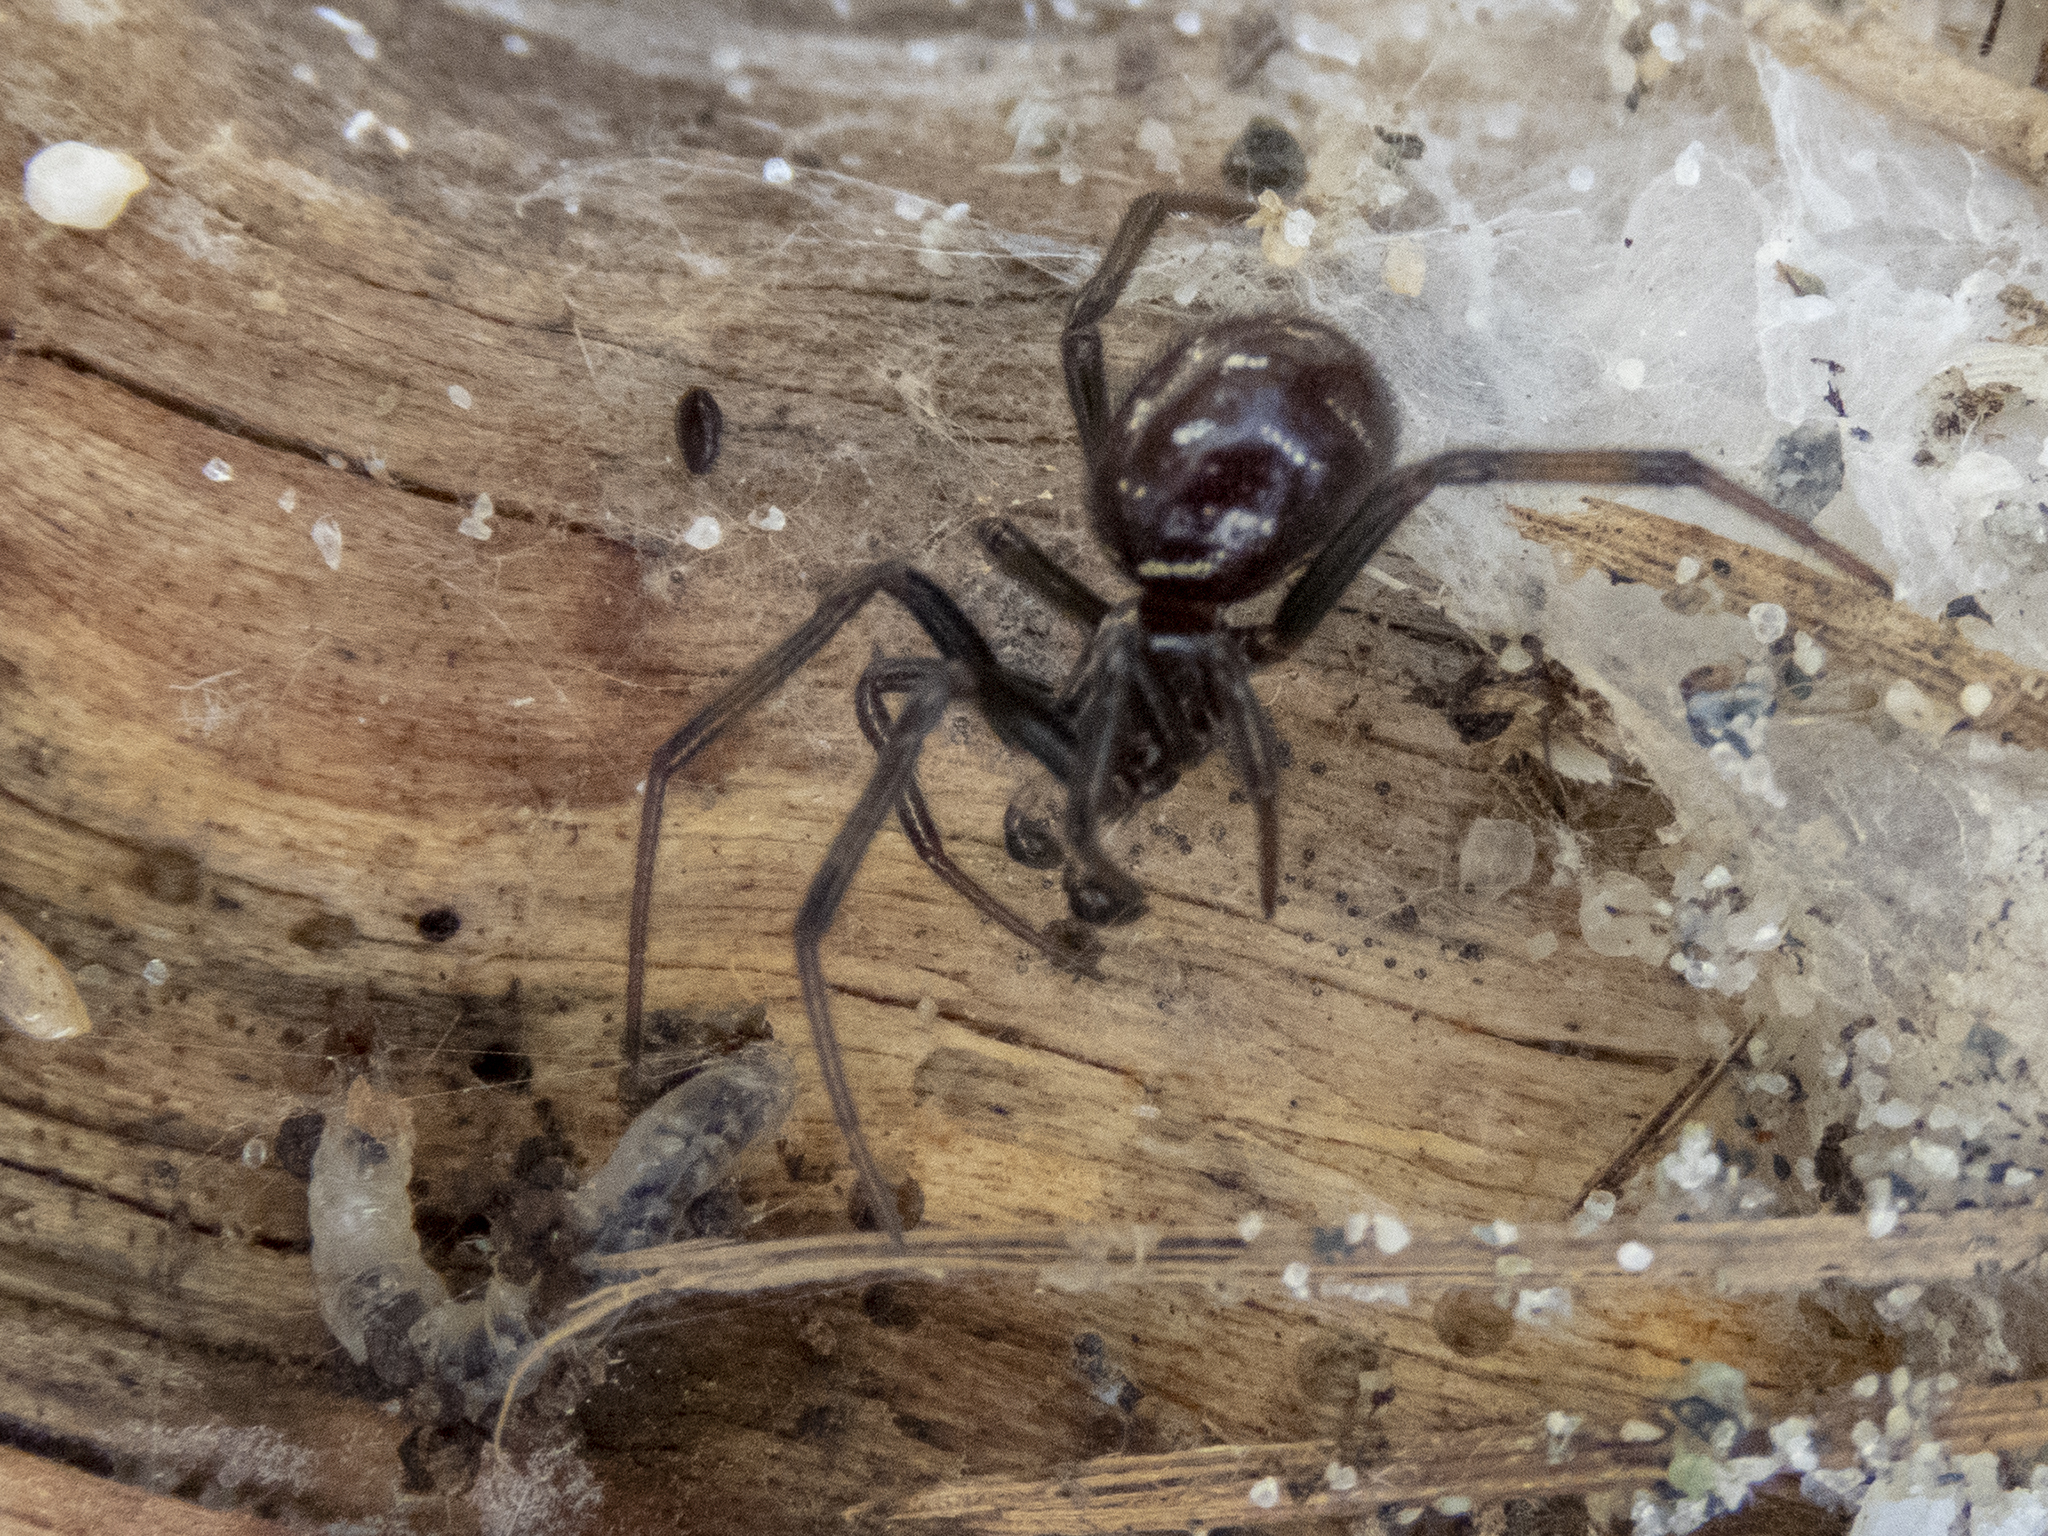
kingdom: Animalia
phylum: Arthropoda
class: Arachnida
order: Araneae
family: Theridiidae
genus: Steatoda
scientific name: Steatoda capensis
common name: Cobweb weaver
